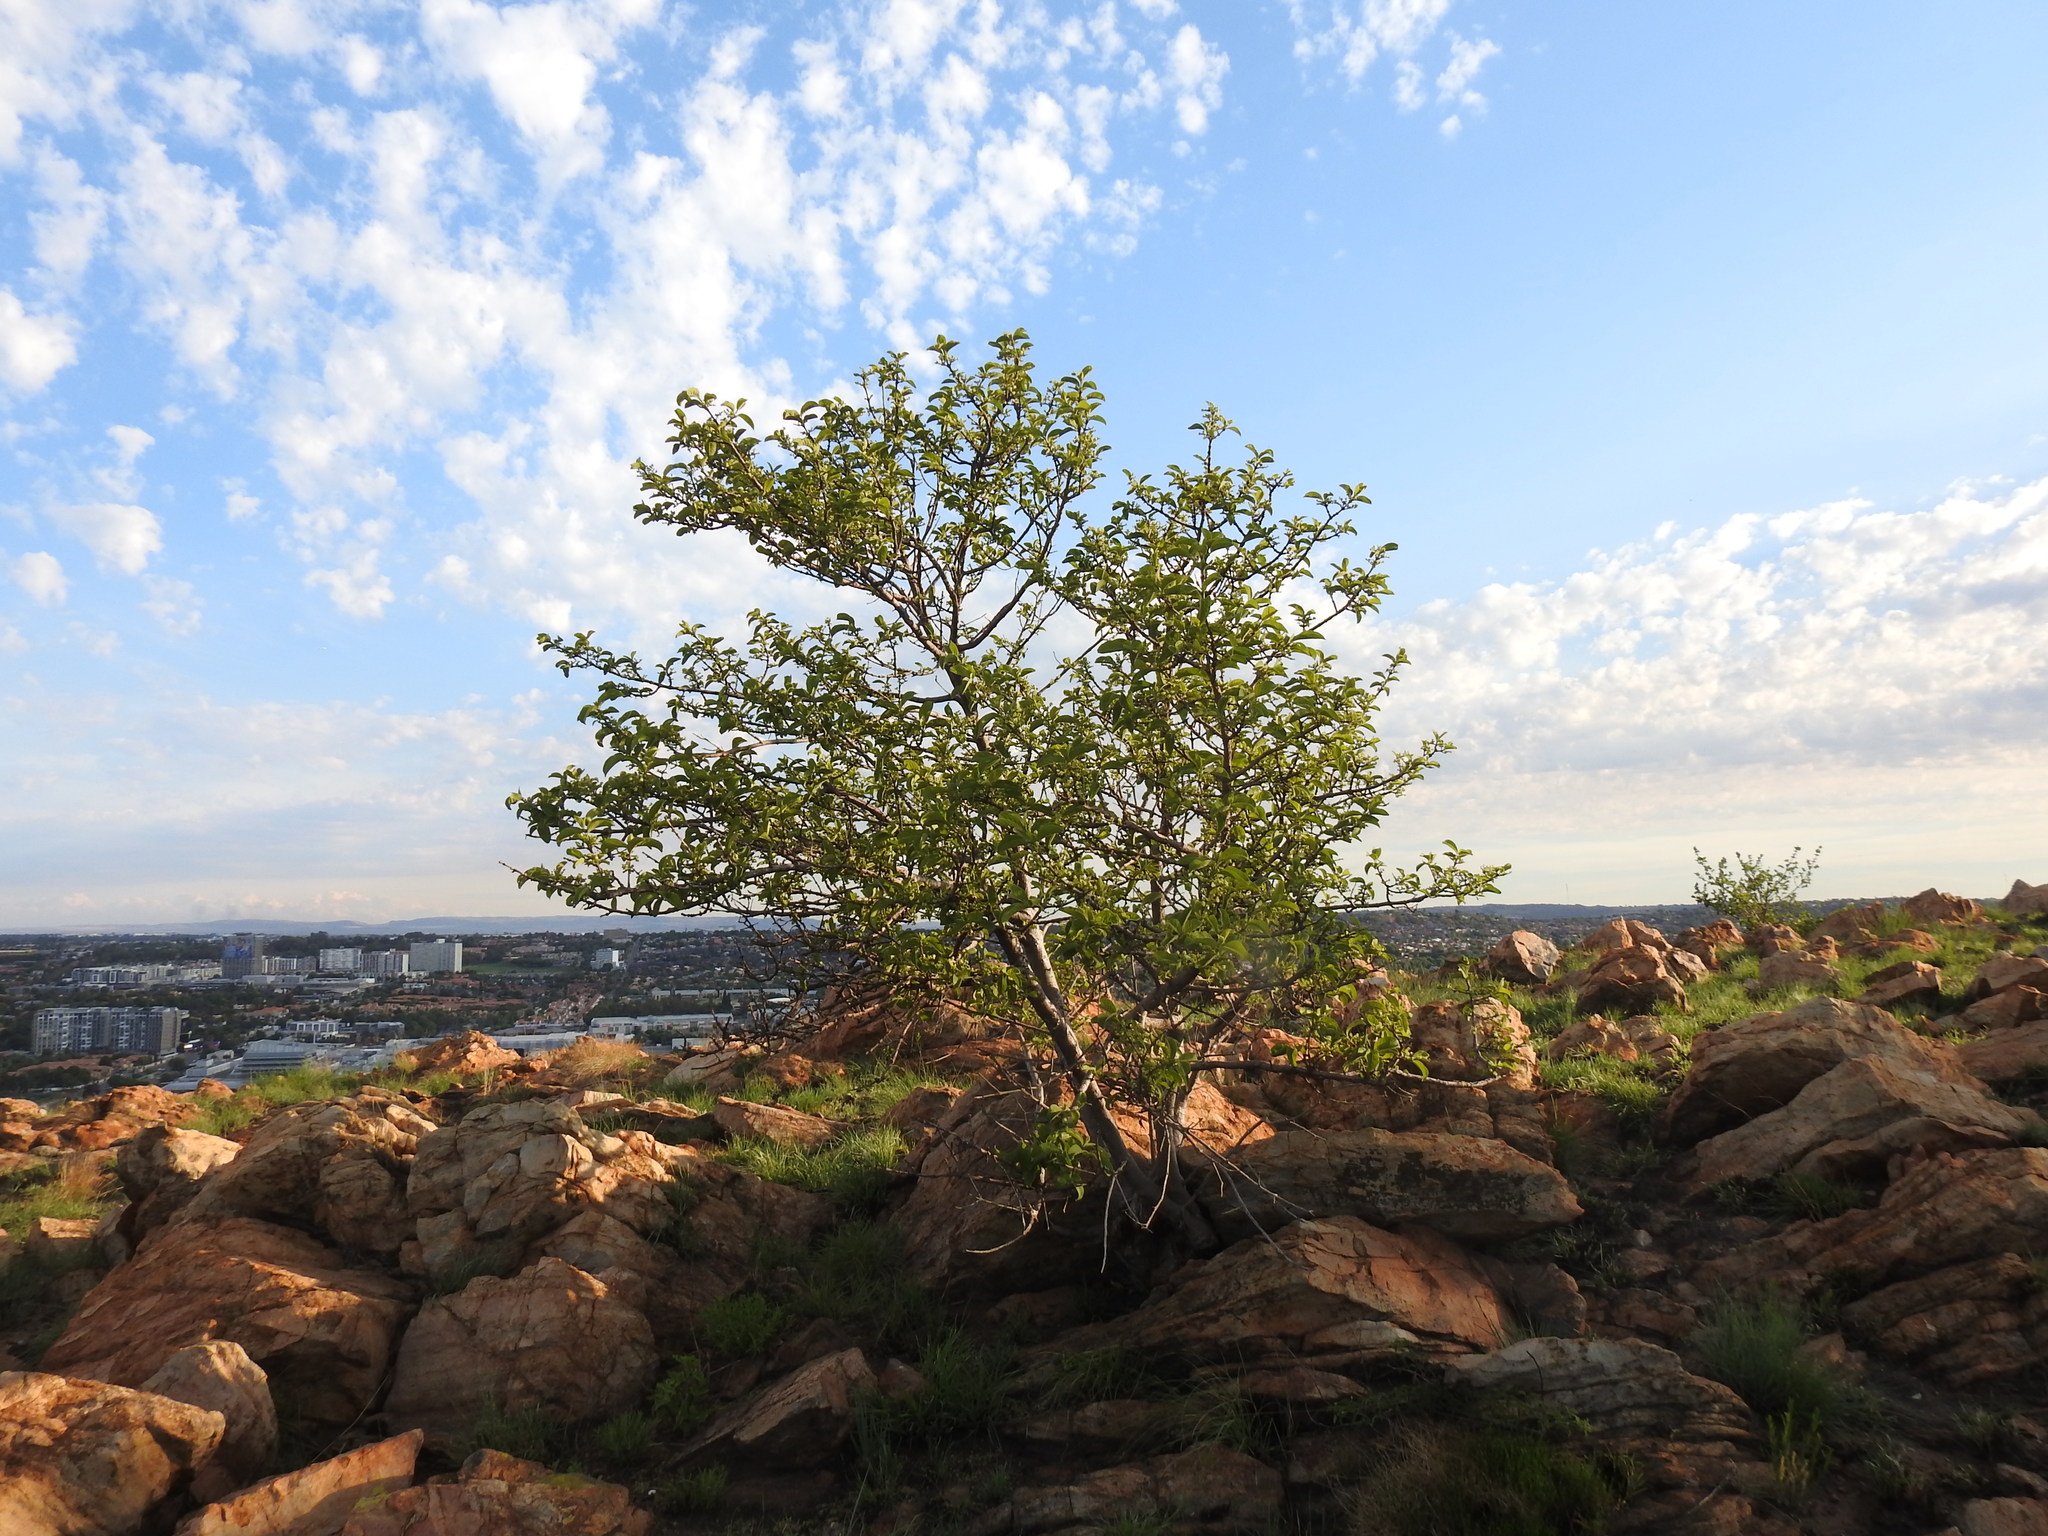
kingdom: Plantae
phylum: Tracheophyta
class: Magnoliopsida
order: Gentianales
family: Rubiaceae
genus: Vangueria
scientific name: Vangueria infausta
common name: Medlar
